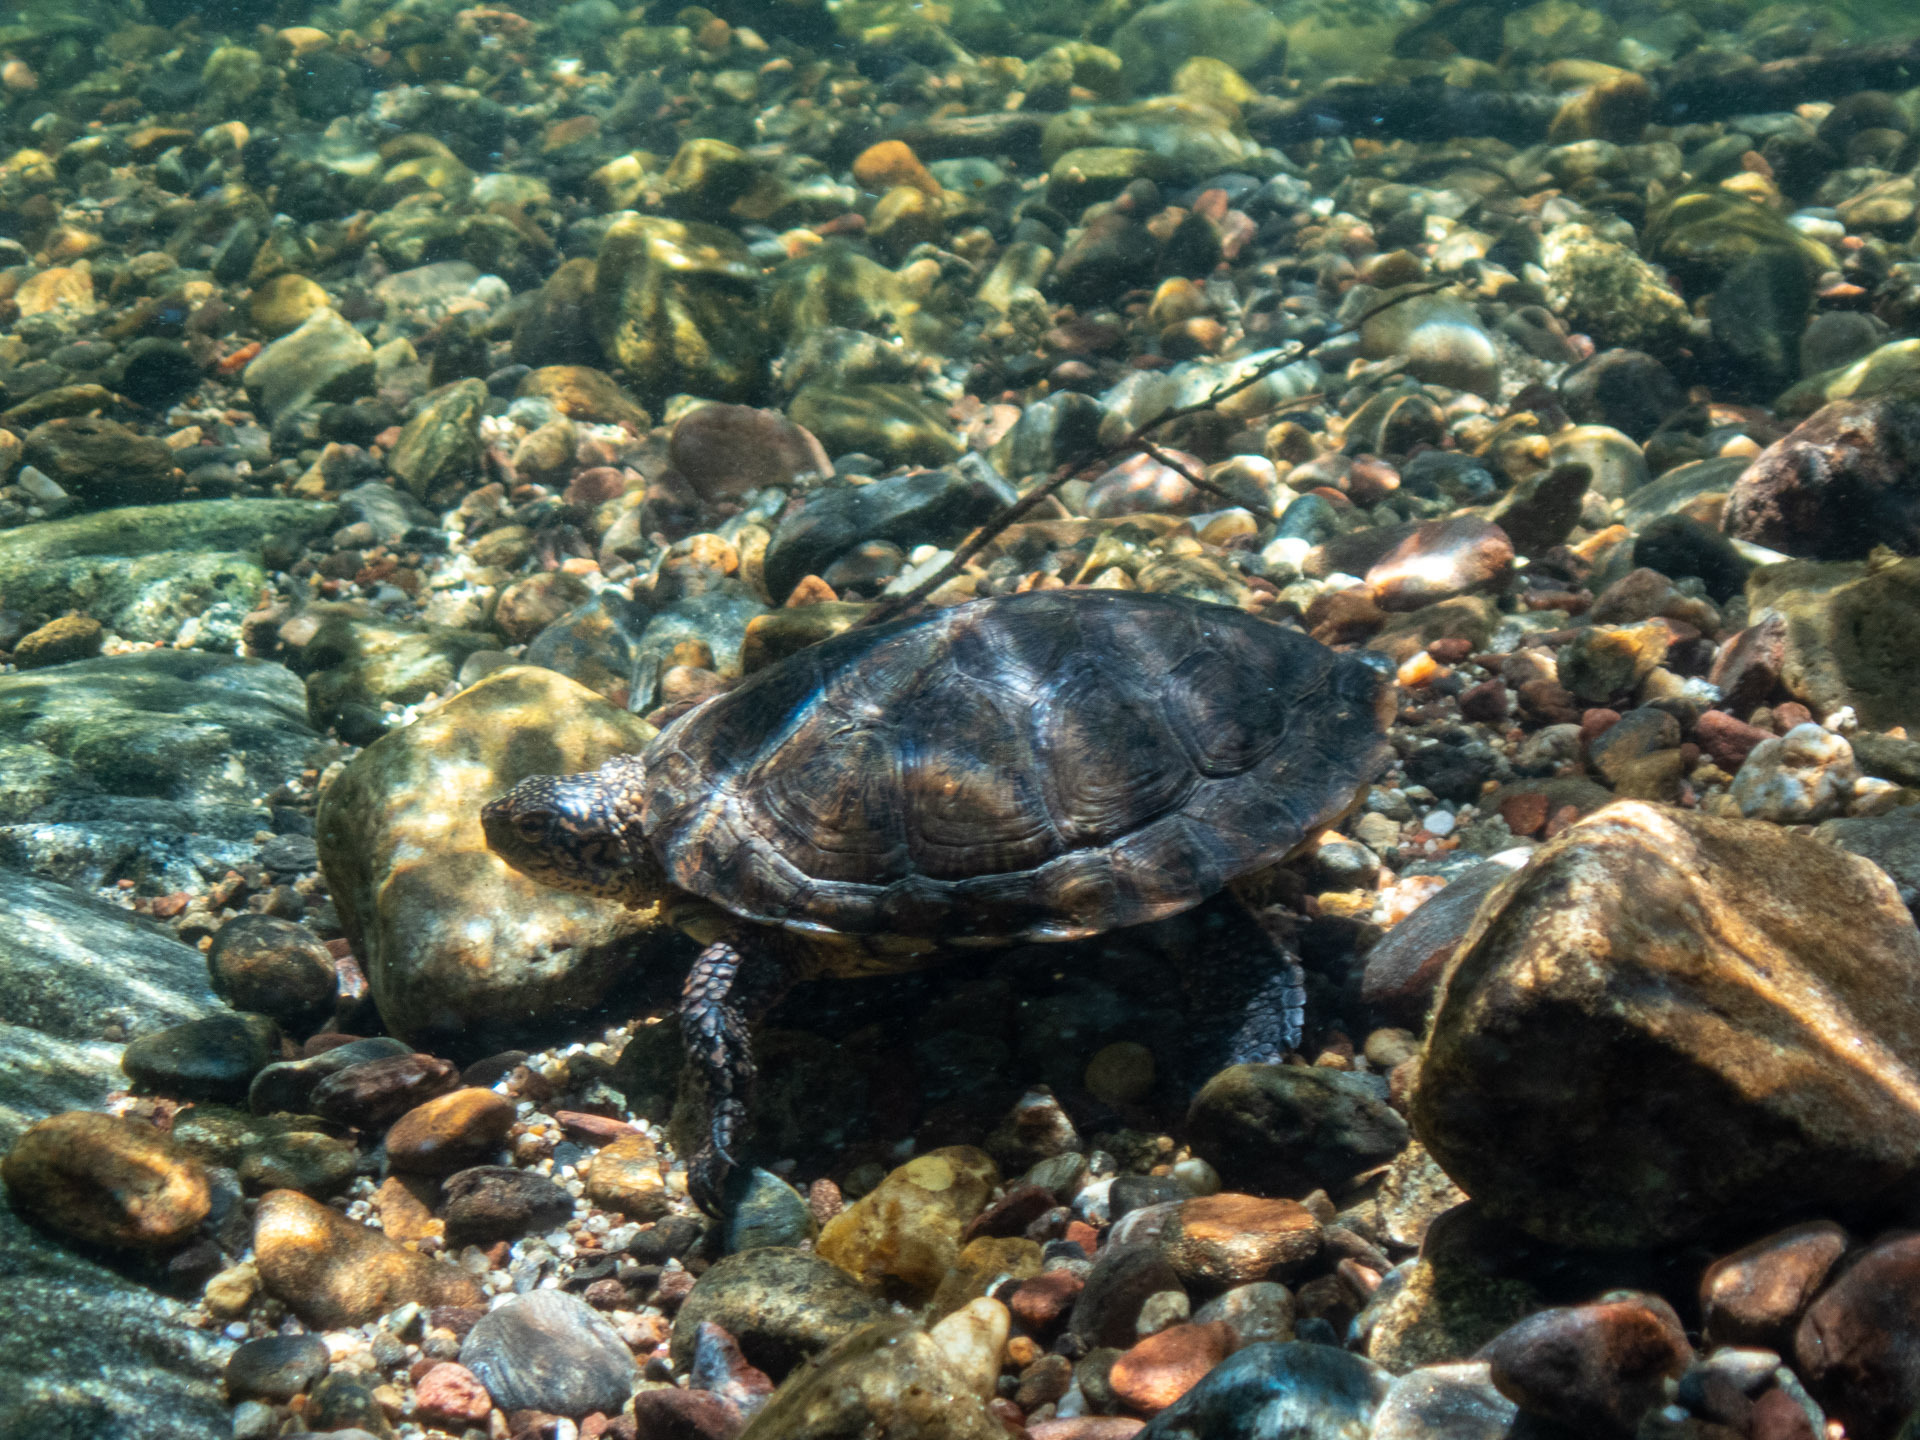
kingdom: Animalia
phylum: Chordata
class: Testudines
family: Emydidae
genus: Actinemys
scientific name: Actinemys marmorata
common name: Western pond turtle
